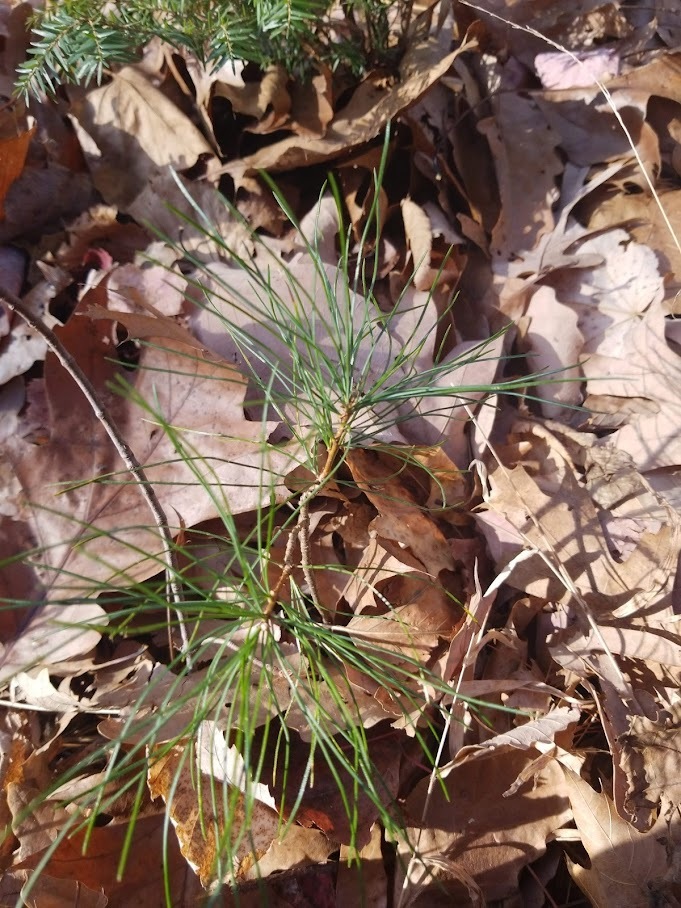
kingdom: Plantae
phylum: Tracheophyta
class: Pinopsida
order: Pinales
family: Pinaceae
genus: Pinus
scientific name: Pinus strobus
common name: Weymouth pine
